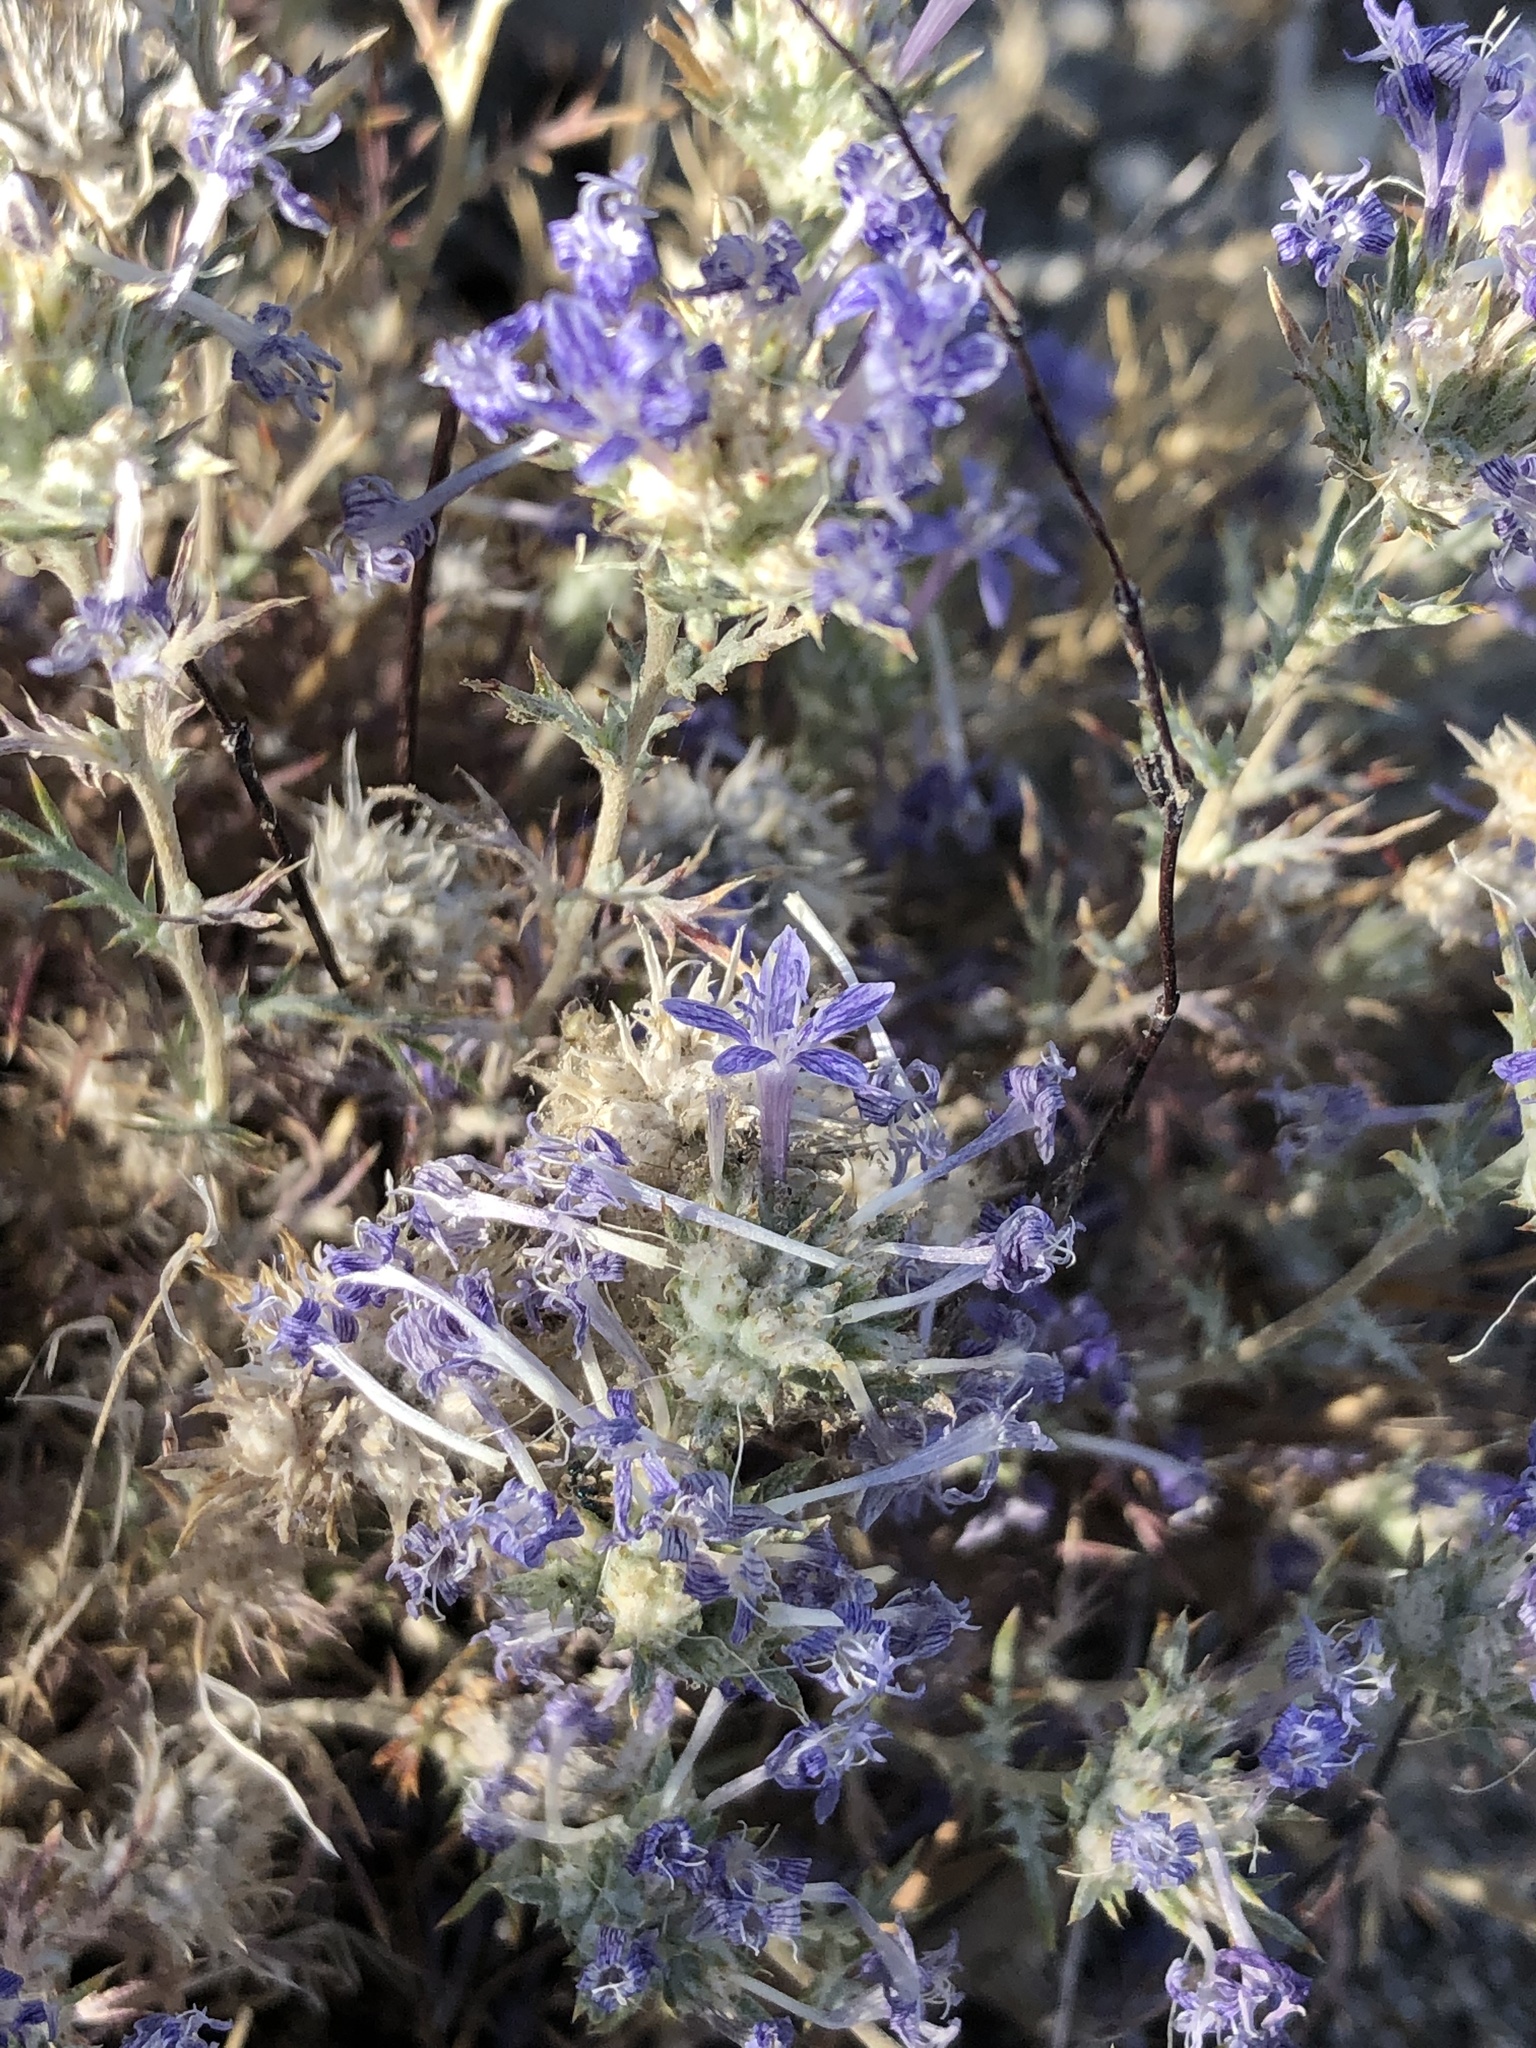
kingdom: Plantae
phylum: Tracheophyta
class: Magnoliopsida
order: Ericales
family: Polemoniaceae
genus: Eriastrum
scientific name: Eriastrum densifolium
